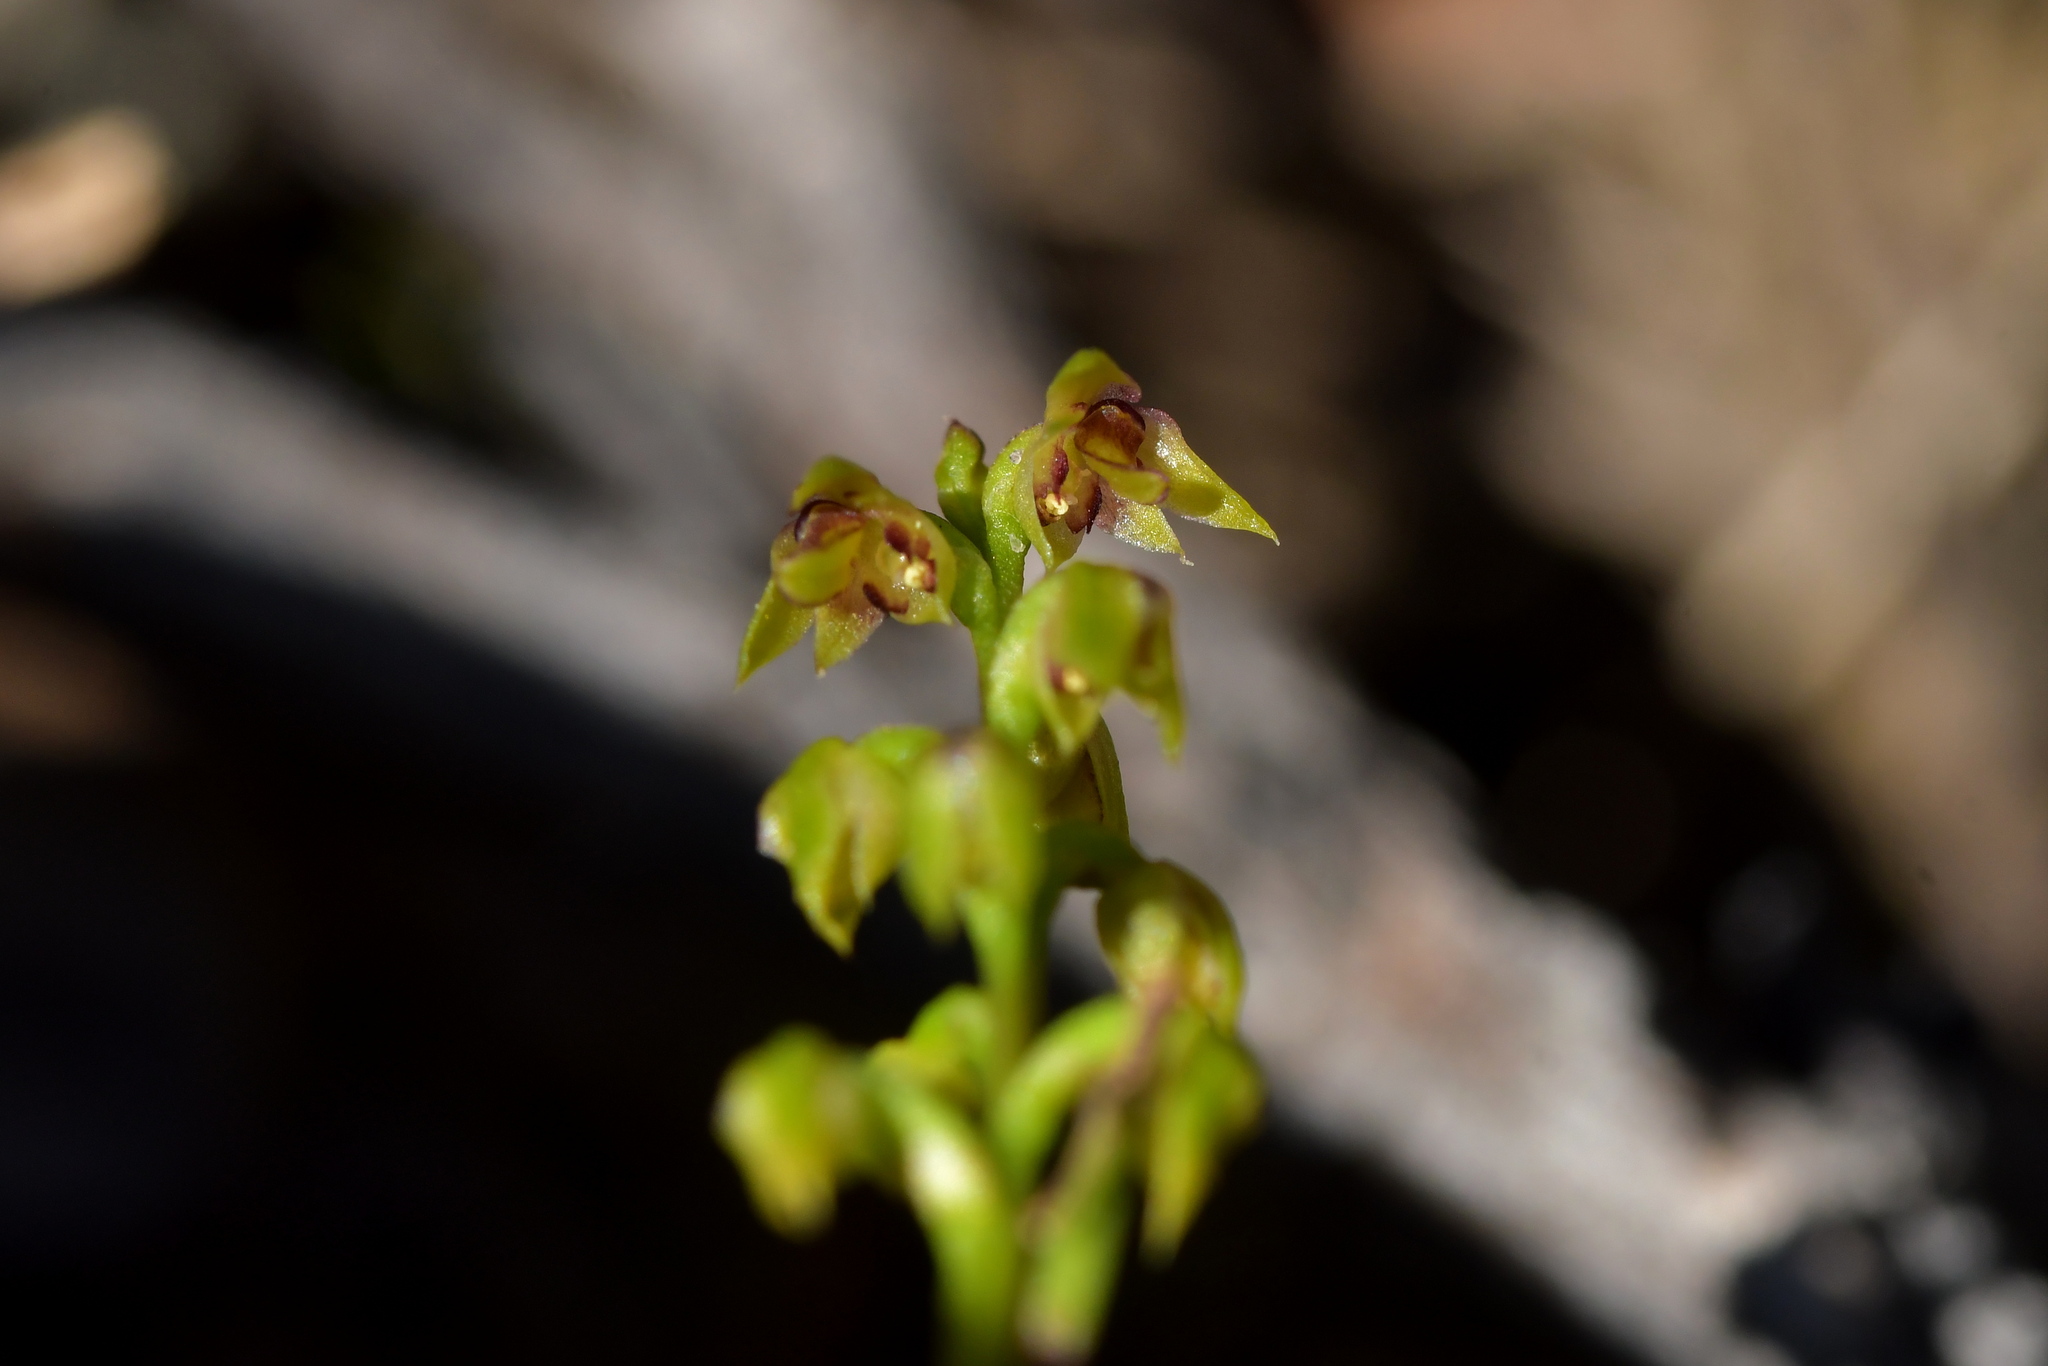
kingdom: Plantae
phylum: Tracheophyta
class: Liliopsida
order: Asparagales
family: Orchidaceae
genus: Genoplesium
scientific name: Genoplesium pumilum
